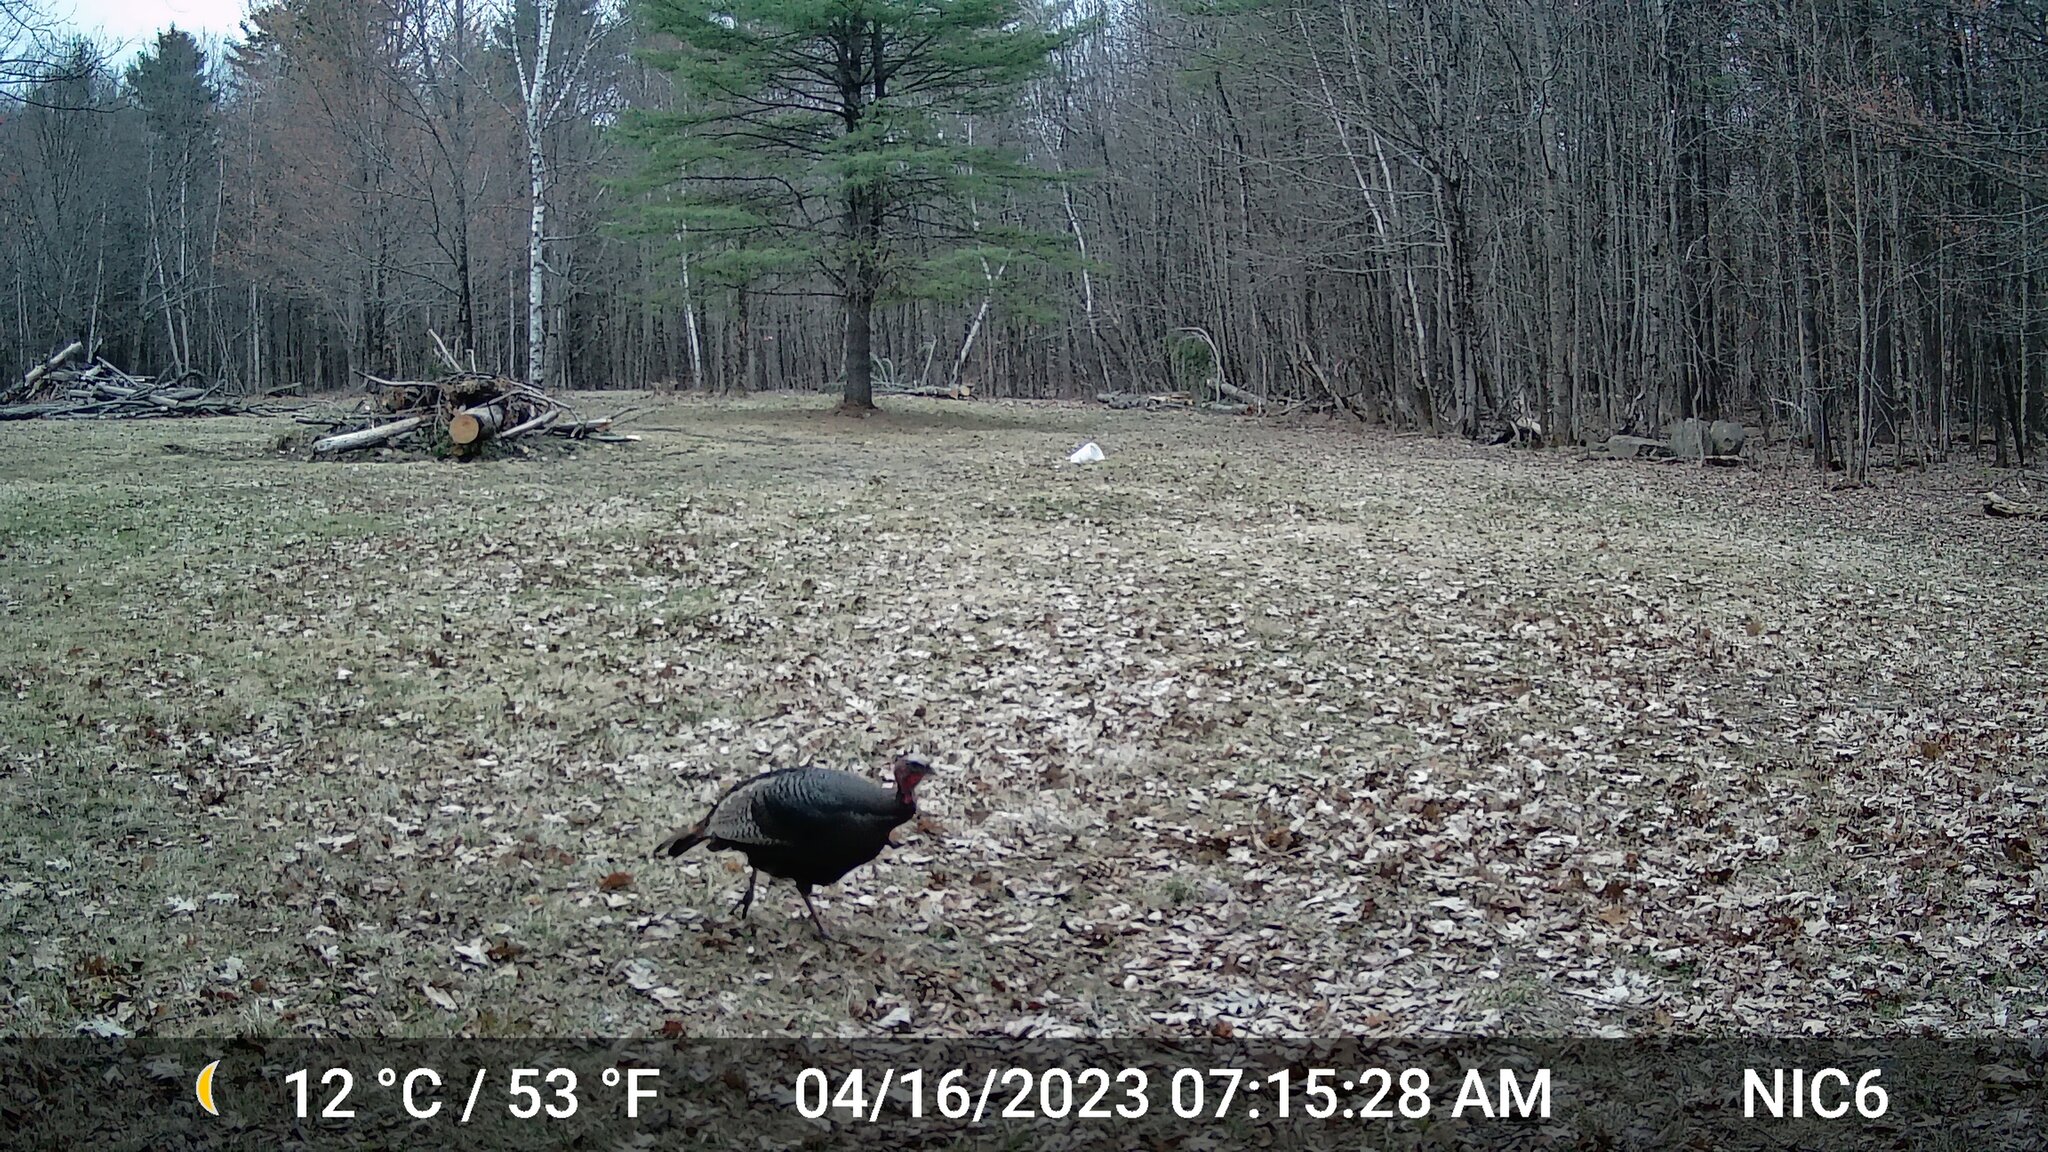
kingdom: Animalia
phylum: Chordata
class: Aves
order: Galliformes
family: Phasianidae
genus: Meleagris
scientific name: Meleagris gallopavo
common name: Wild turkey
